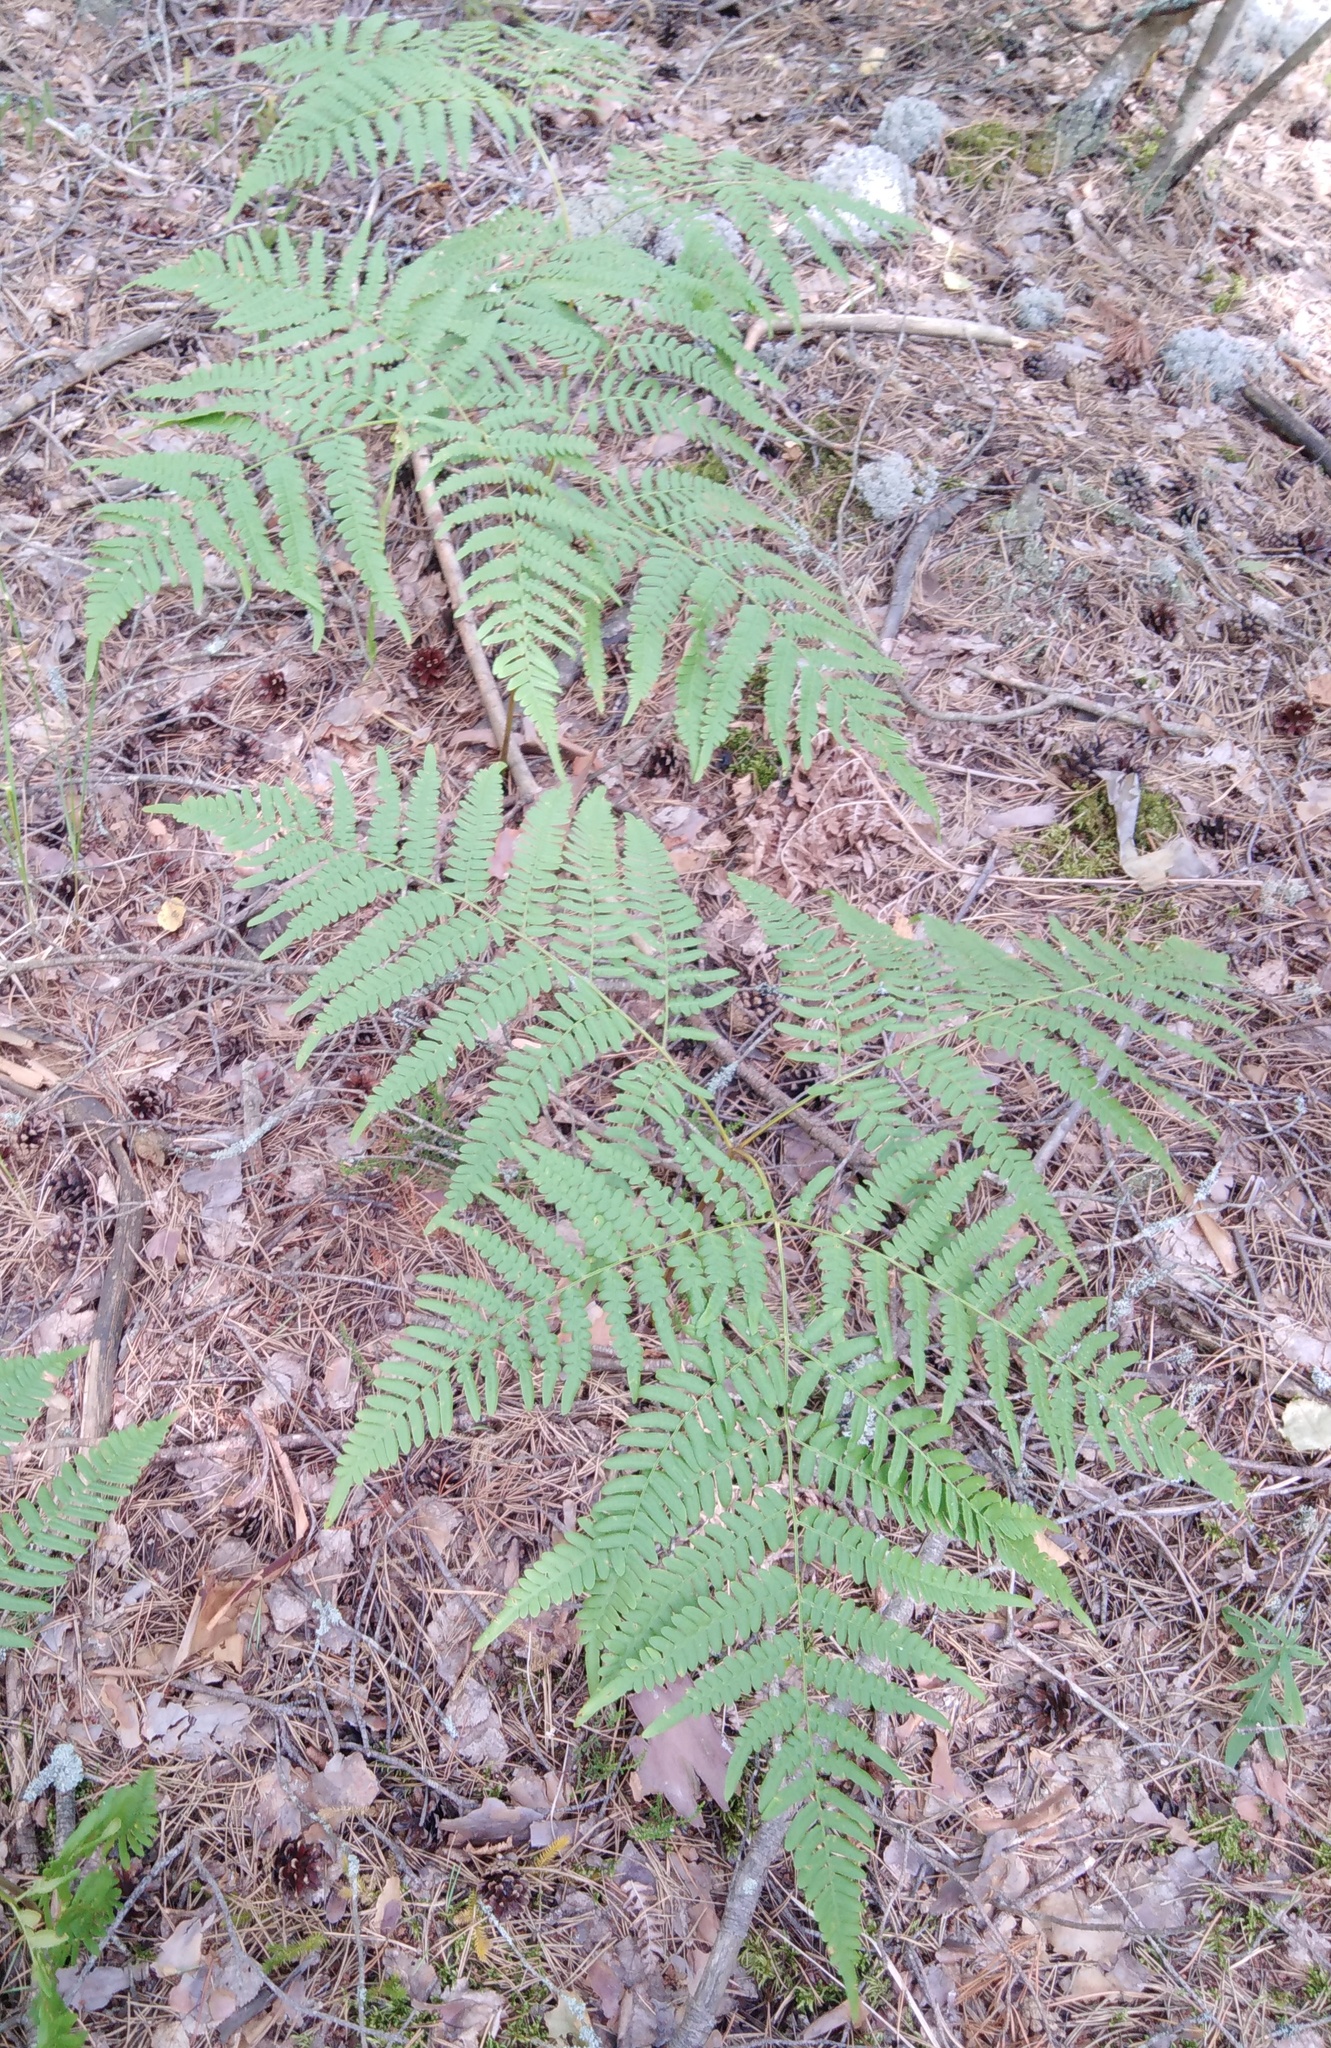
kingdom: Plantae
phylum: Tracheophyta
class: Polypodiopsida
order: Polypodiales
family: Dennstaedtiaceae
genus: Pteridium
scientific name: Pteridium aquilinum
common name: Bracken
